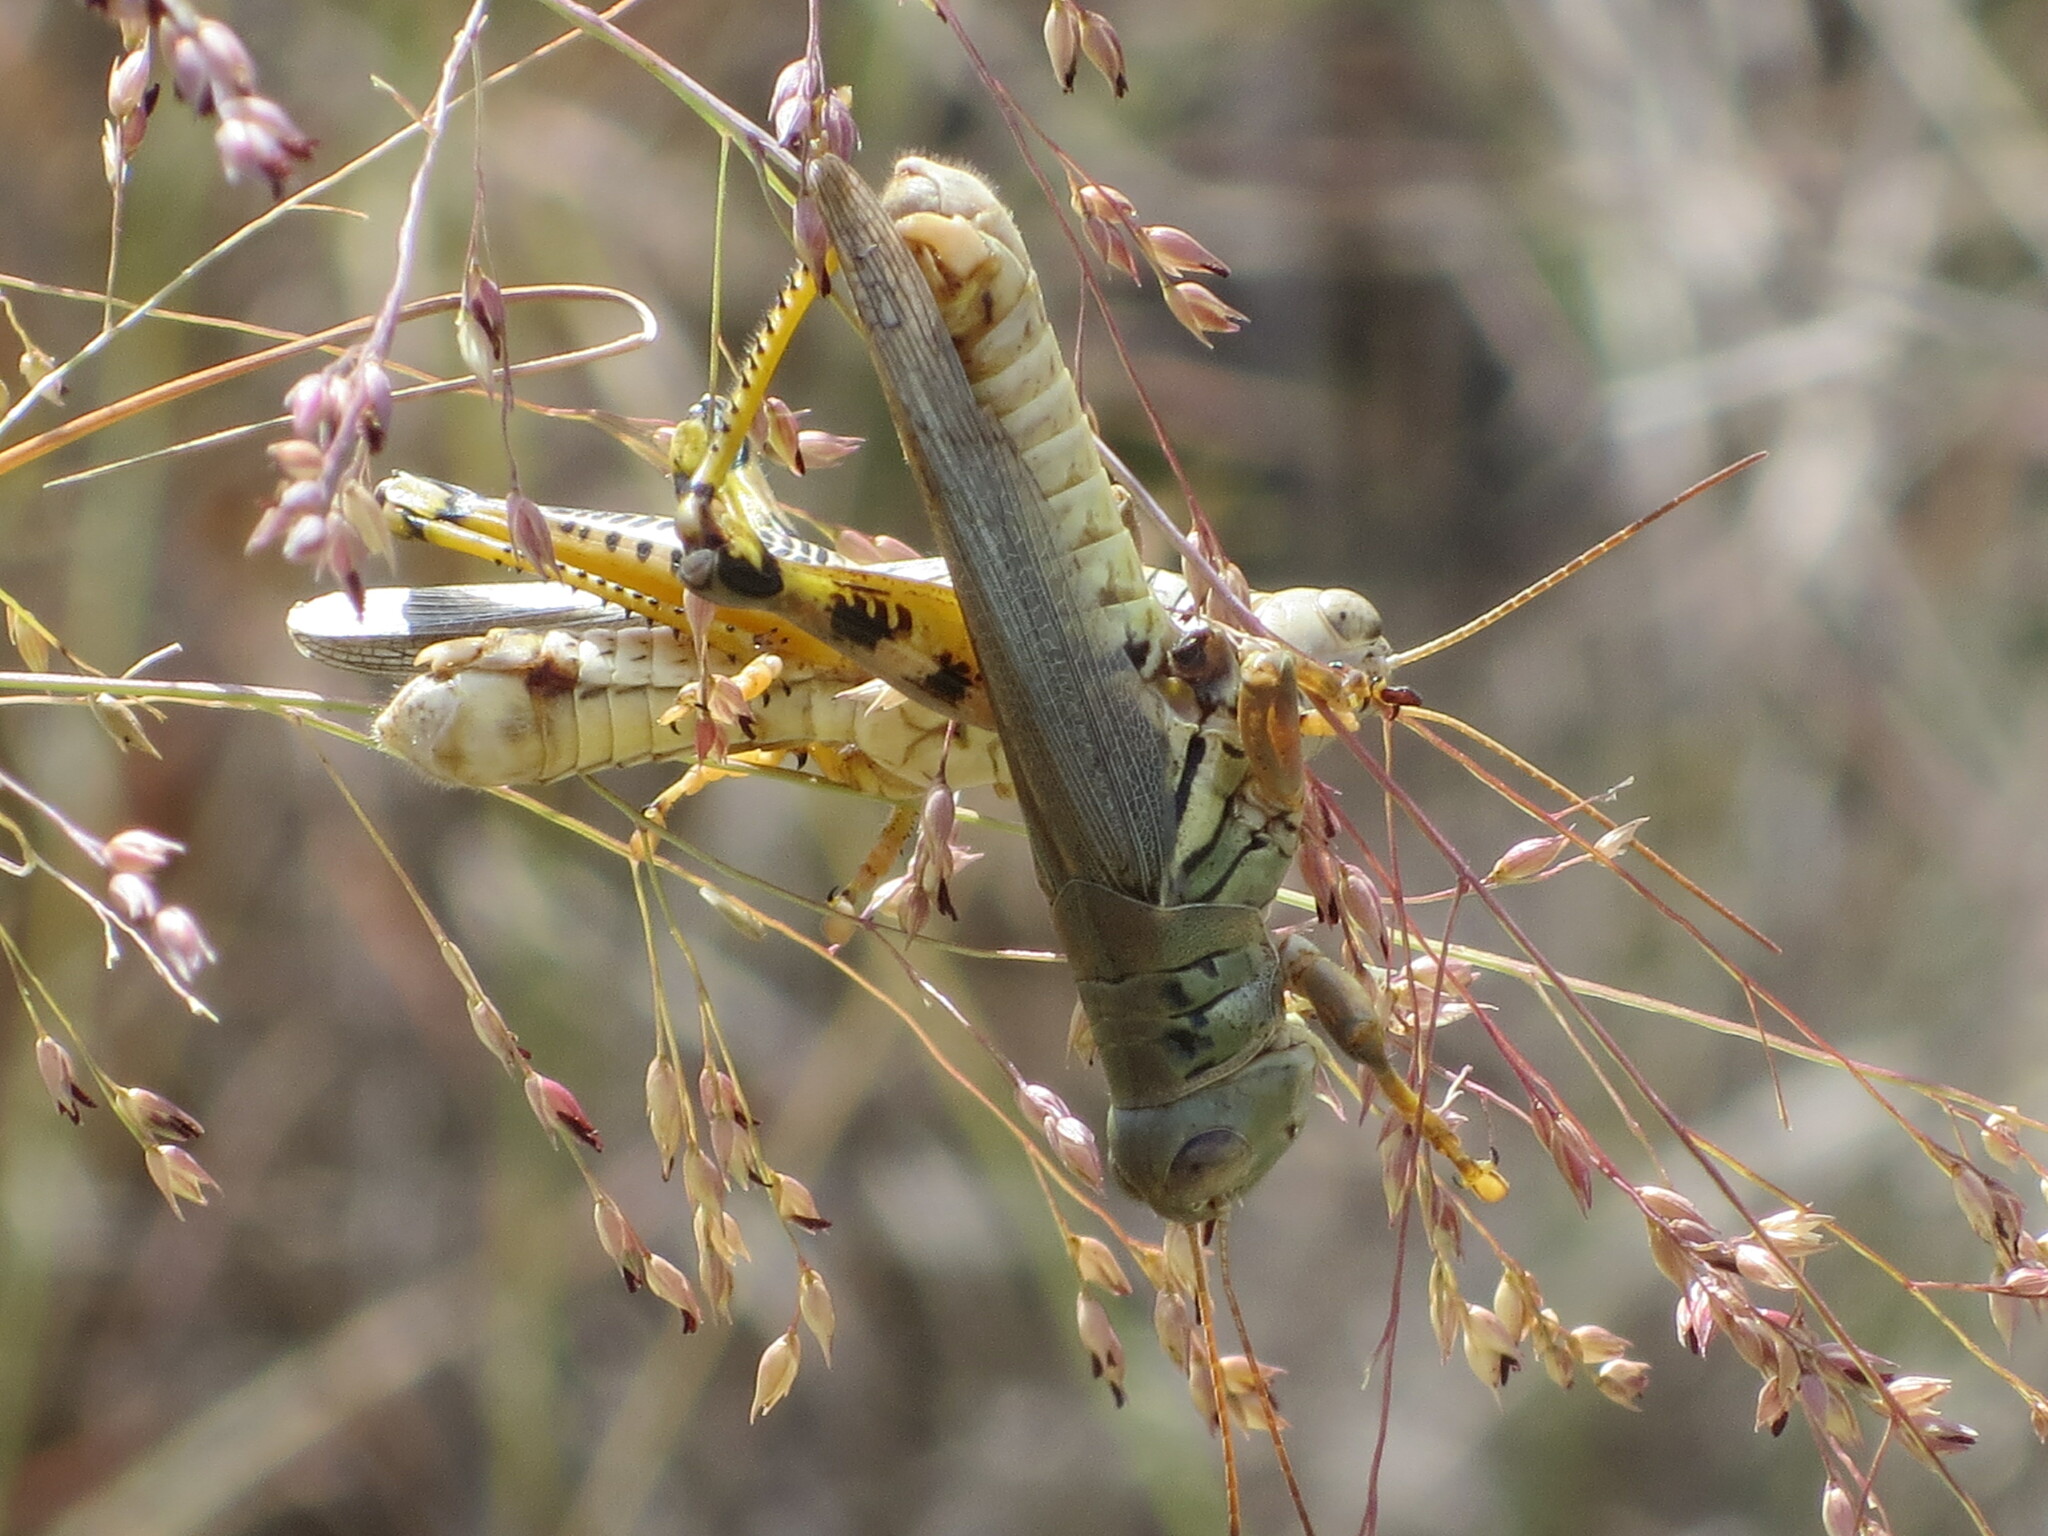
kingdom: Animalia
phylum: Arthropoda
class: Insecta
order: Orthoptera
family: Acrididae
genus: Melanoplus
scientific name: Melanoplus differentialis
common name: Differential grasshopper
